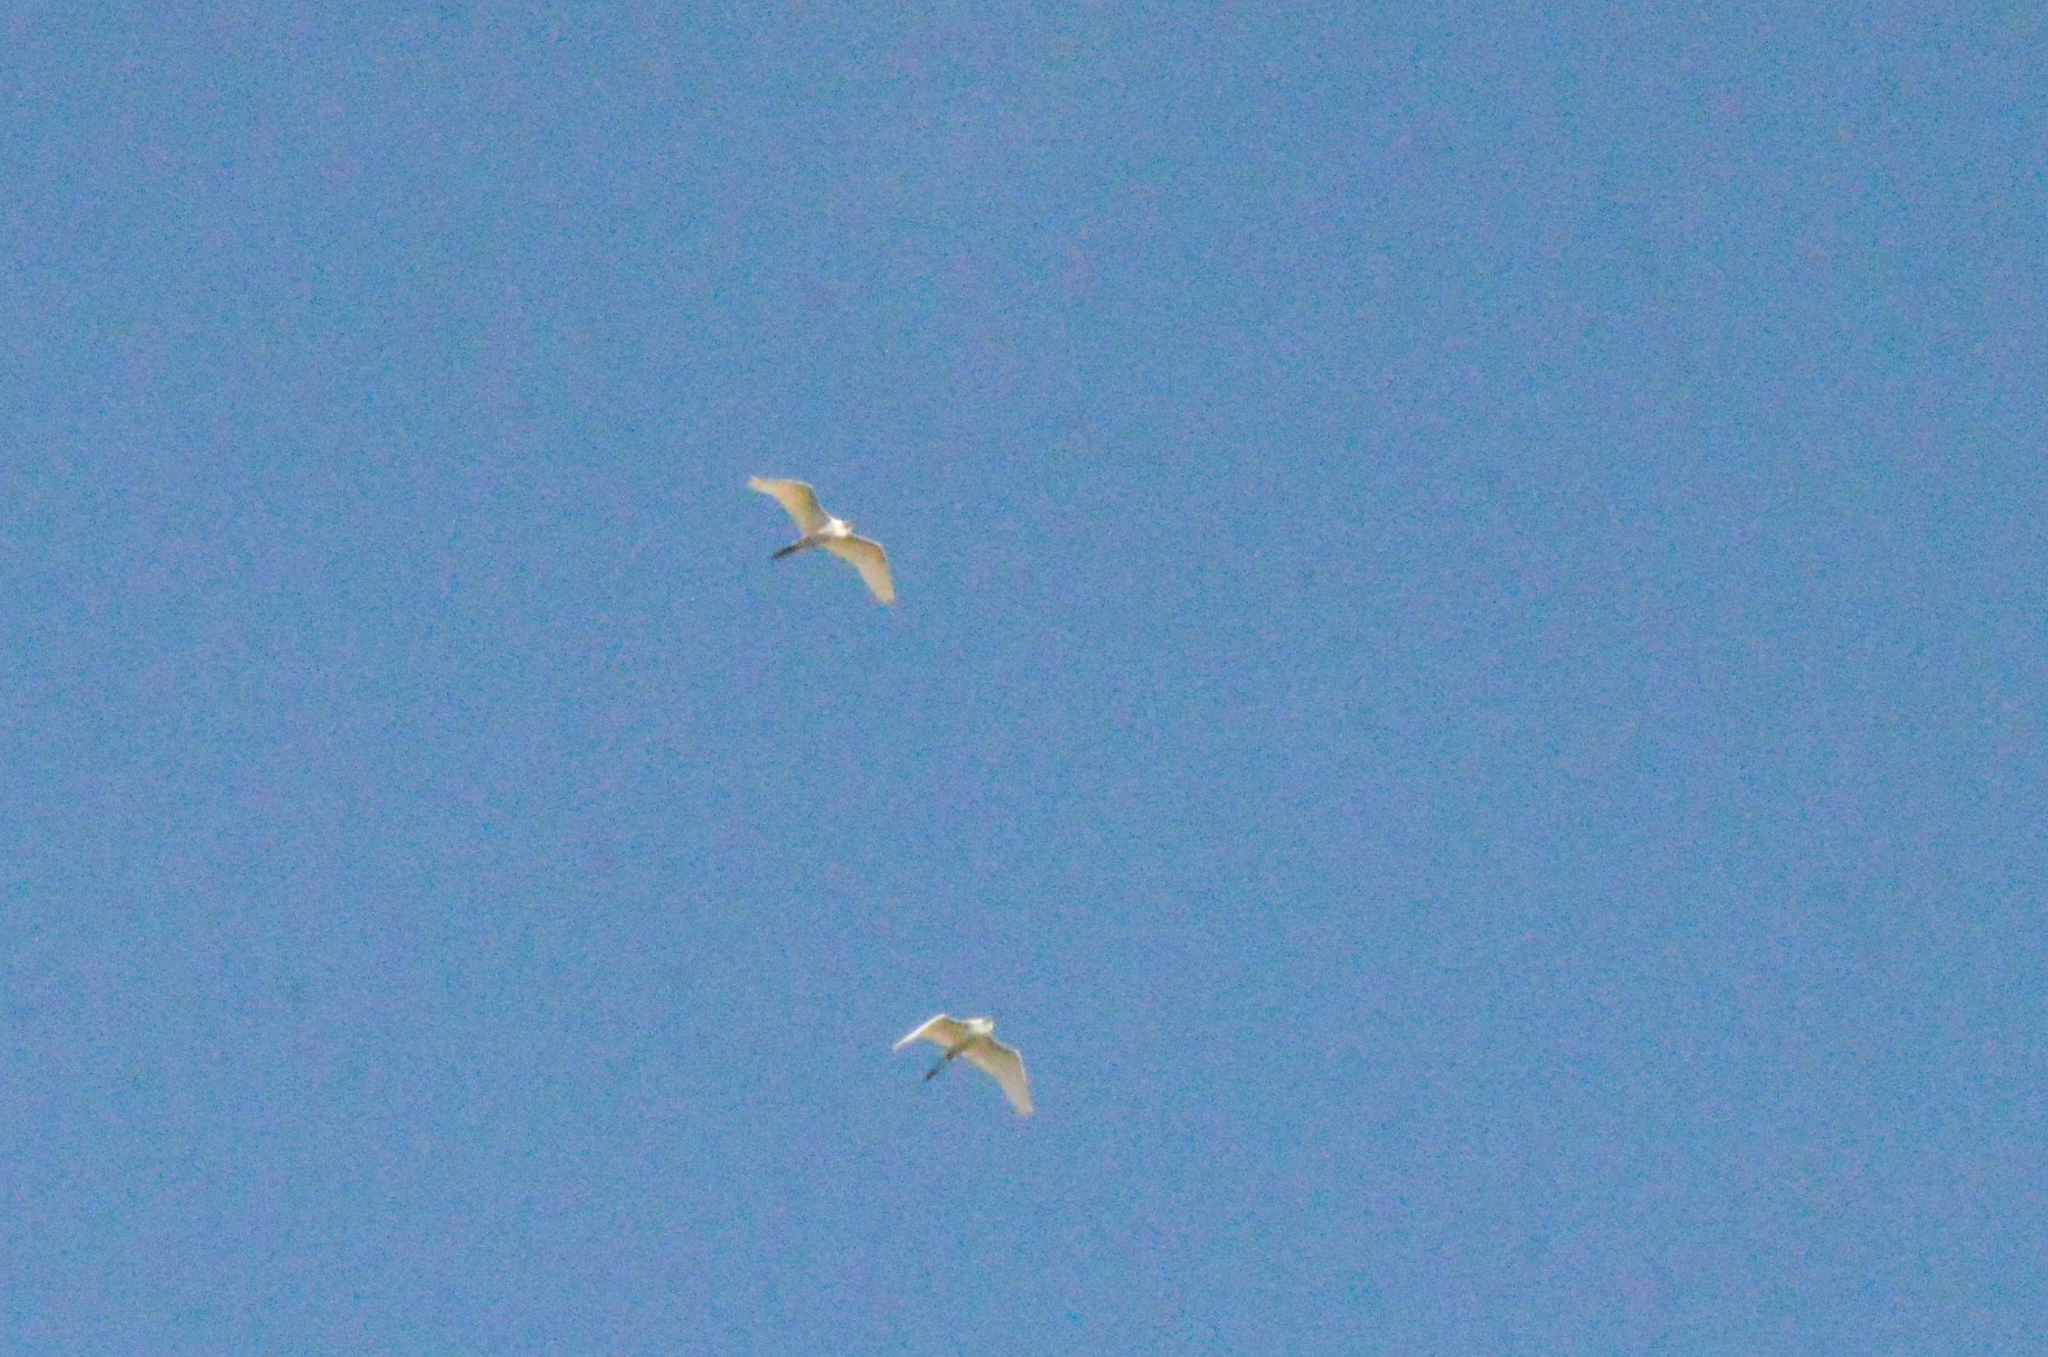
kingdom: Animalia
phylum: Chordata
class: Aves
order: Pelecaniformes
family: Ardeidae
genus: Ardea
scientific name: Ardea alba
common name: Great egret
